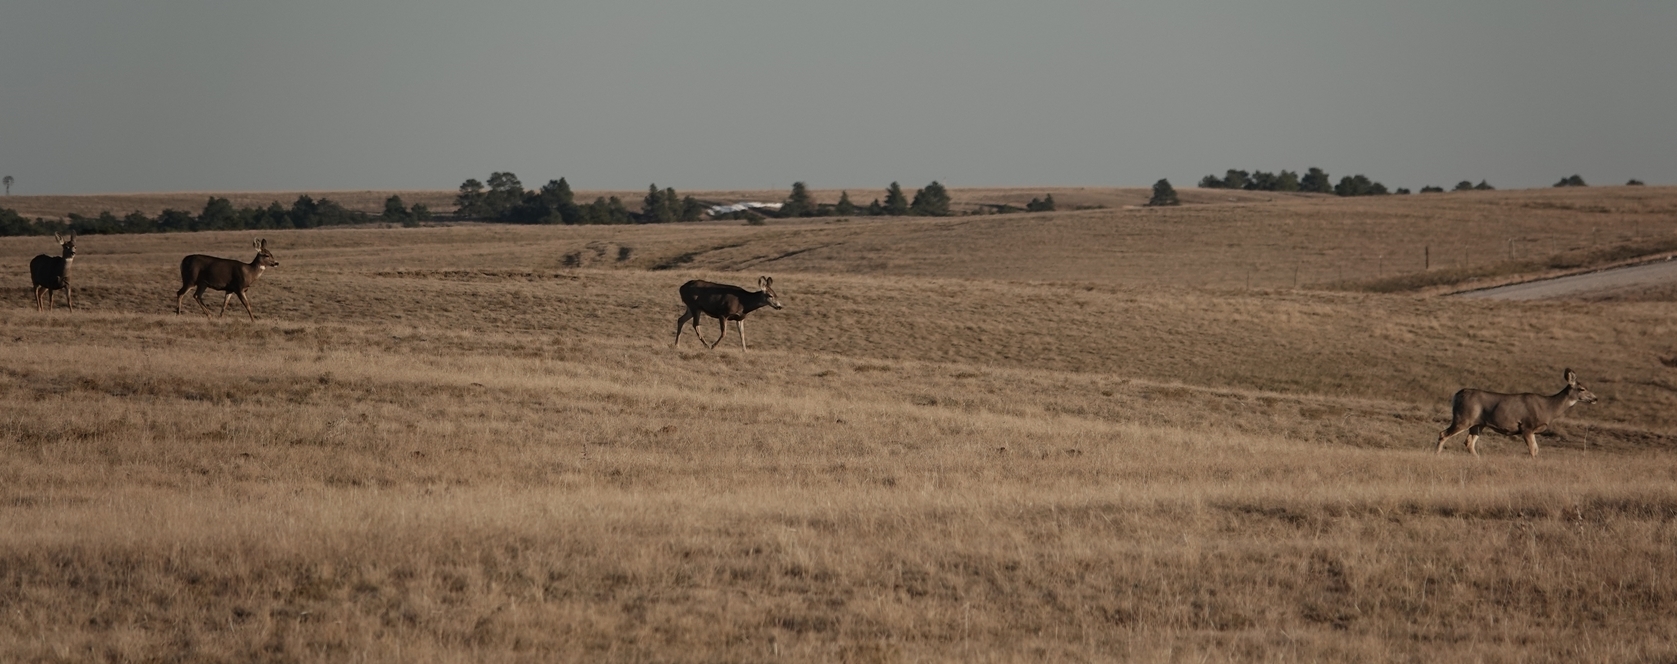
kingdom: Animalia
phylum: Chordata
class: Mammalia
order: Artiodactyla
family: Cervidae
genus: Odocoileus
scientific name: Odocoileus hemionus
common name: Mule deer
